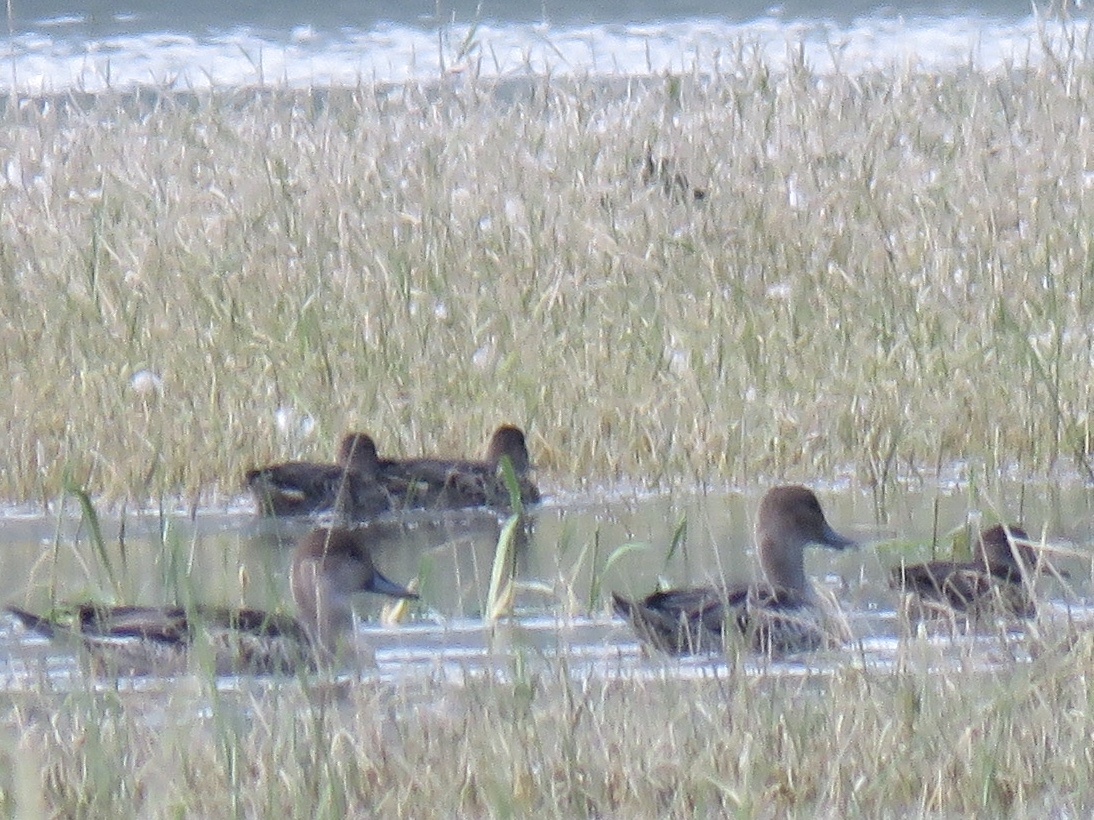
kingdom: Animalia
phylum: Chordata
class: Aves
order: Anseriformes
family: Anatidae
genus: Anas
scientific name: Anas acuta
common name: Northern pintail
